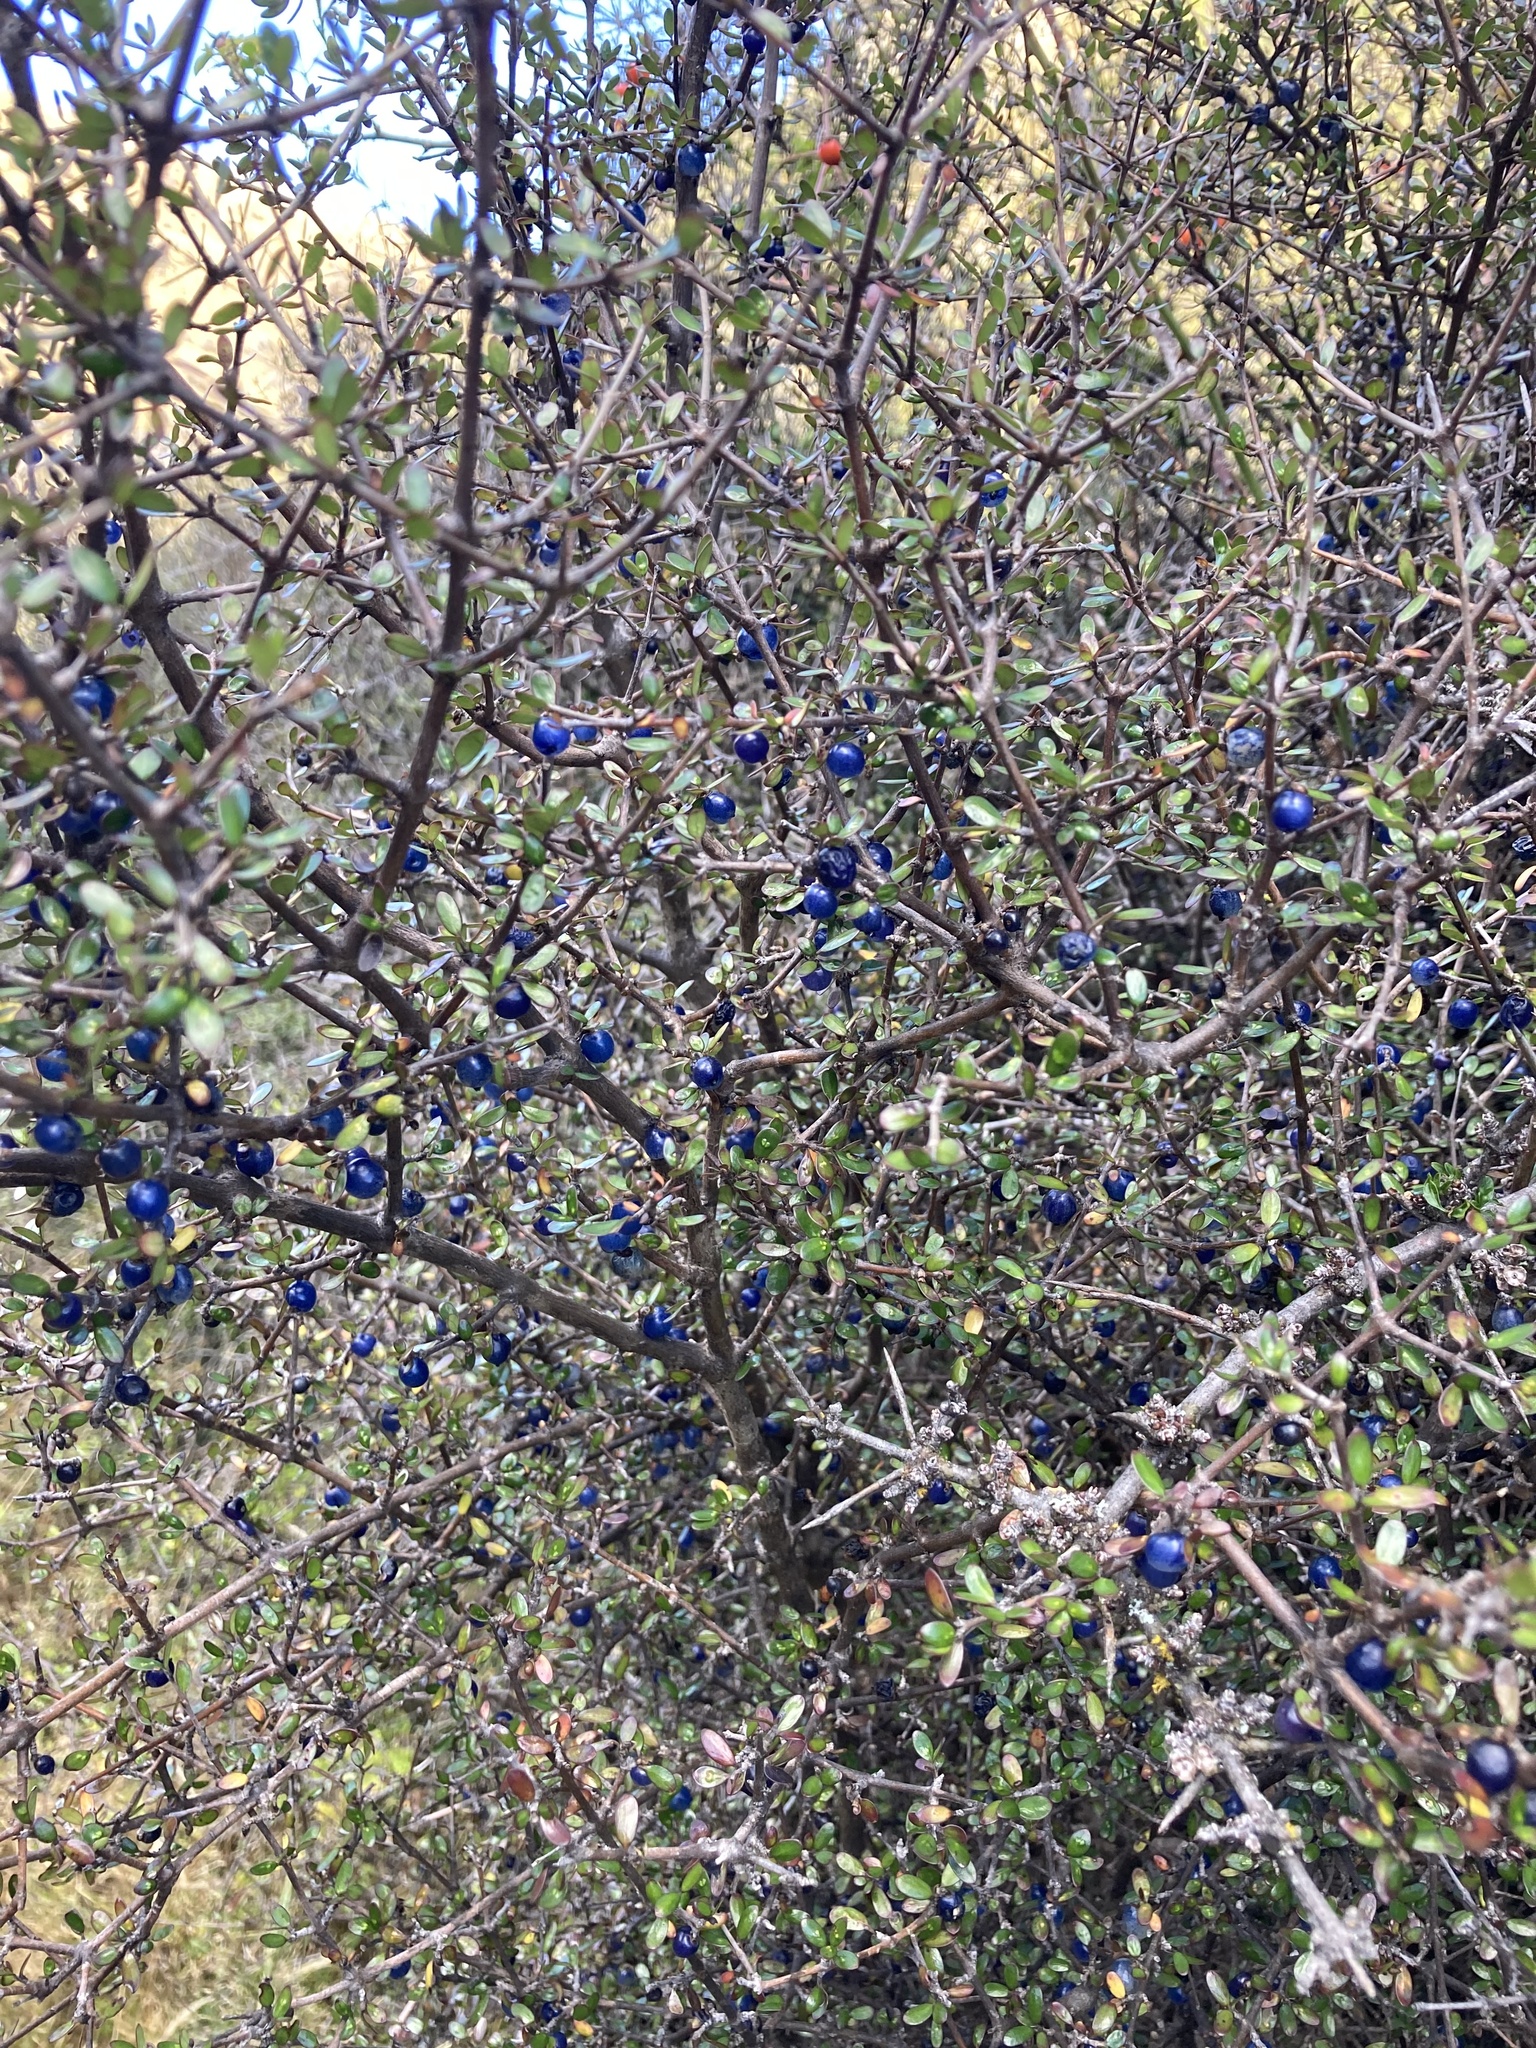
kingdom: Plantae
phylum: Tracheophyta
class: Magnoliopsida
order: Gentianales
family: Rubiaceae
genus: Coprosma
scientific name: Coprosma propinqua
